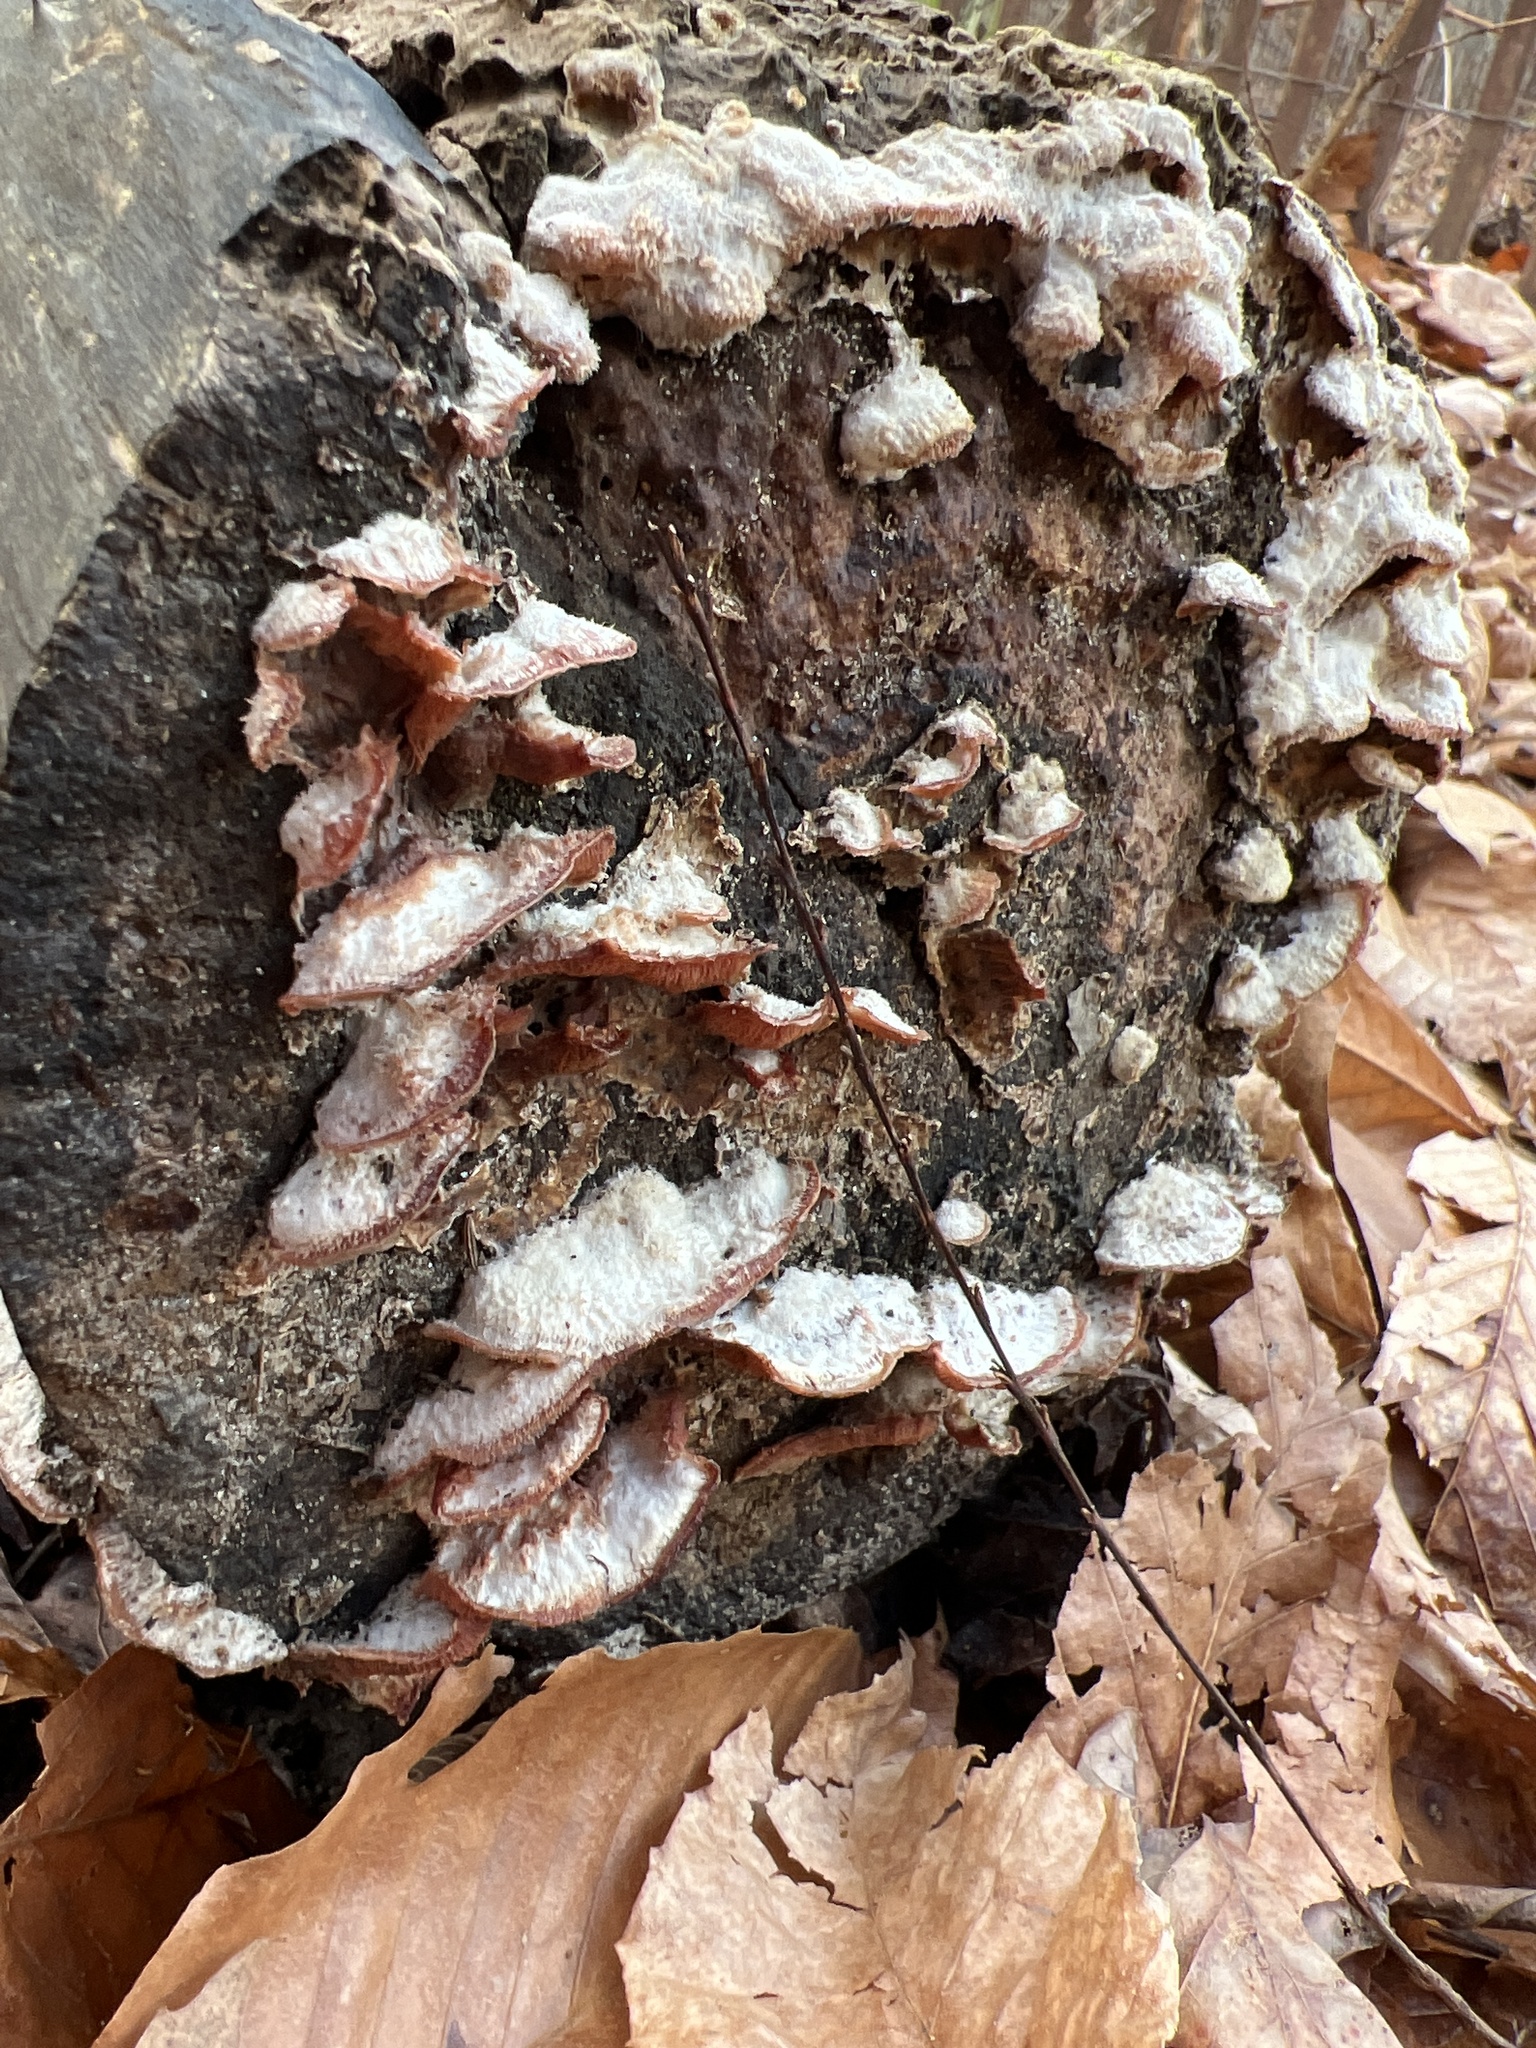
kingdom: Fungi
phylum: Basidiomycota
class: Agaricomycetes
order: Polyporales
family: Meruliaceae
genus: Phlebia
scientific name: Phlebia tremellosa
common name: Jelly rot
